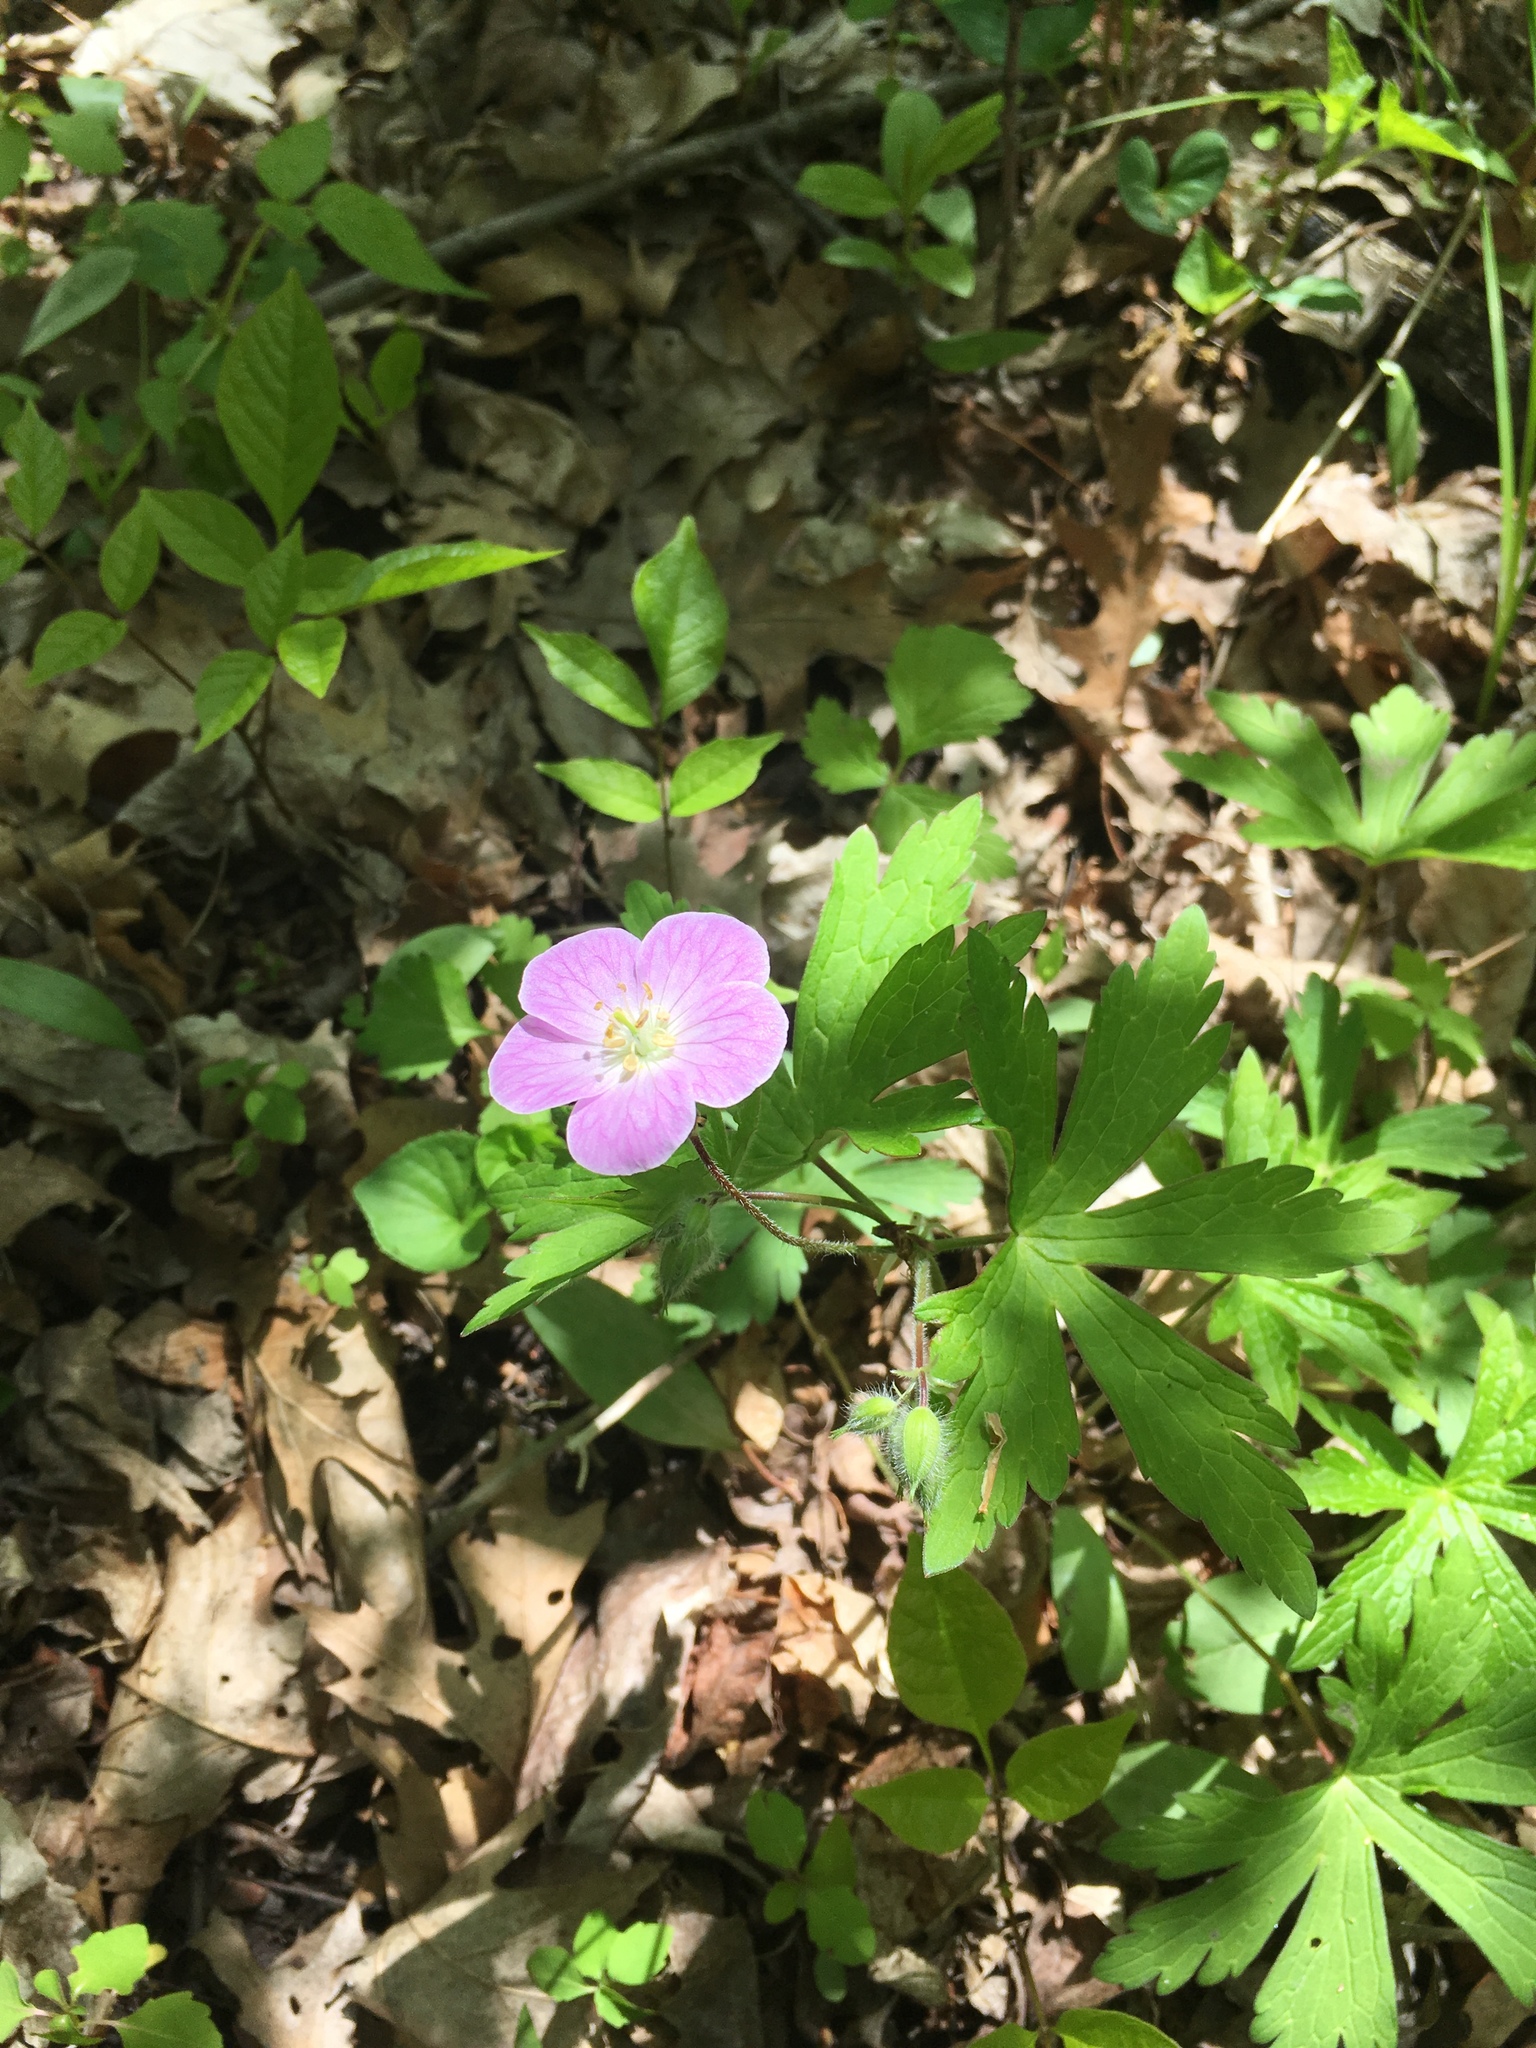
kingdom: Plantae
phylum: Tracheophyta
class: Magnoliopsida
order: Geraniales
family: Geraniaceae
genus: Geranium
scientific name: Geranium maculatum
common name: Spotted geranium
